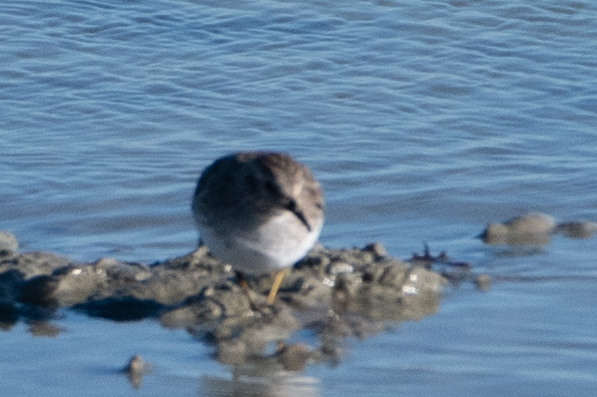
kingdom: Animalia
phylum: Chordata
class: Aves
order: Charadriiformes
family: Scolopacidae
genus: Calidris
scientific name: Calidris minutilla
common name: Least sandpiper
